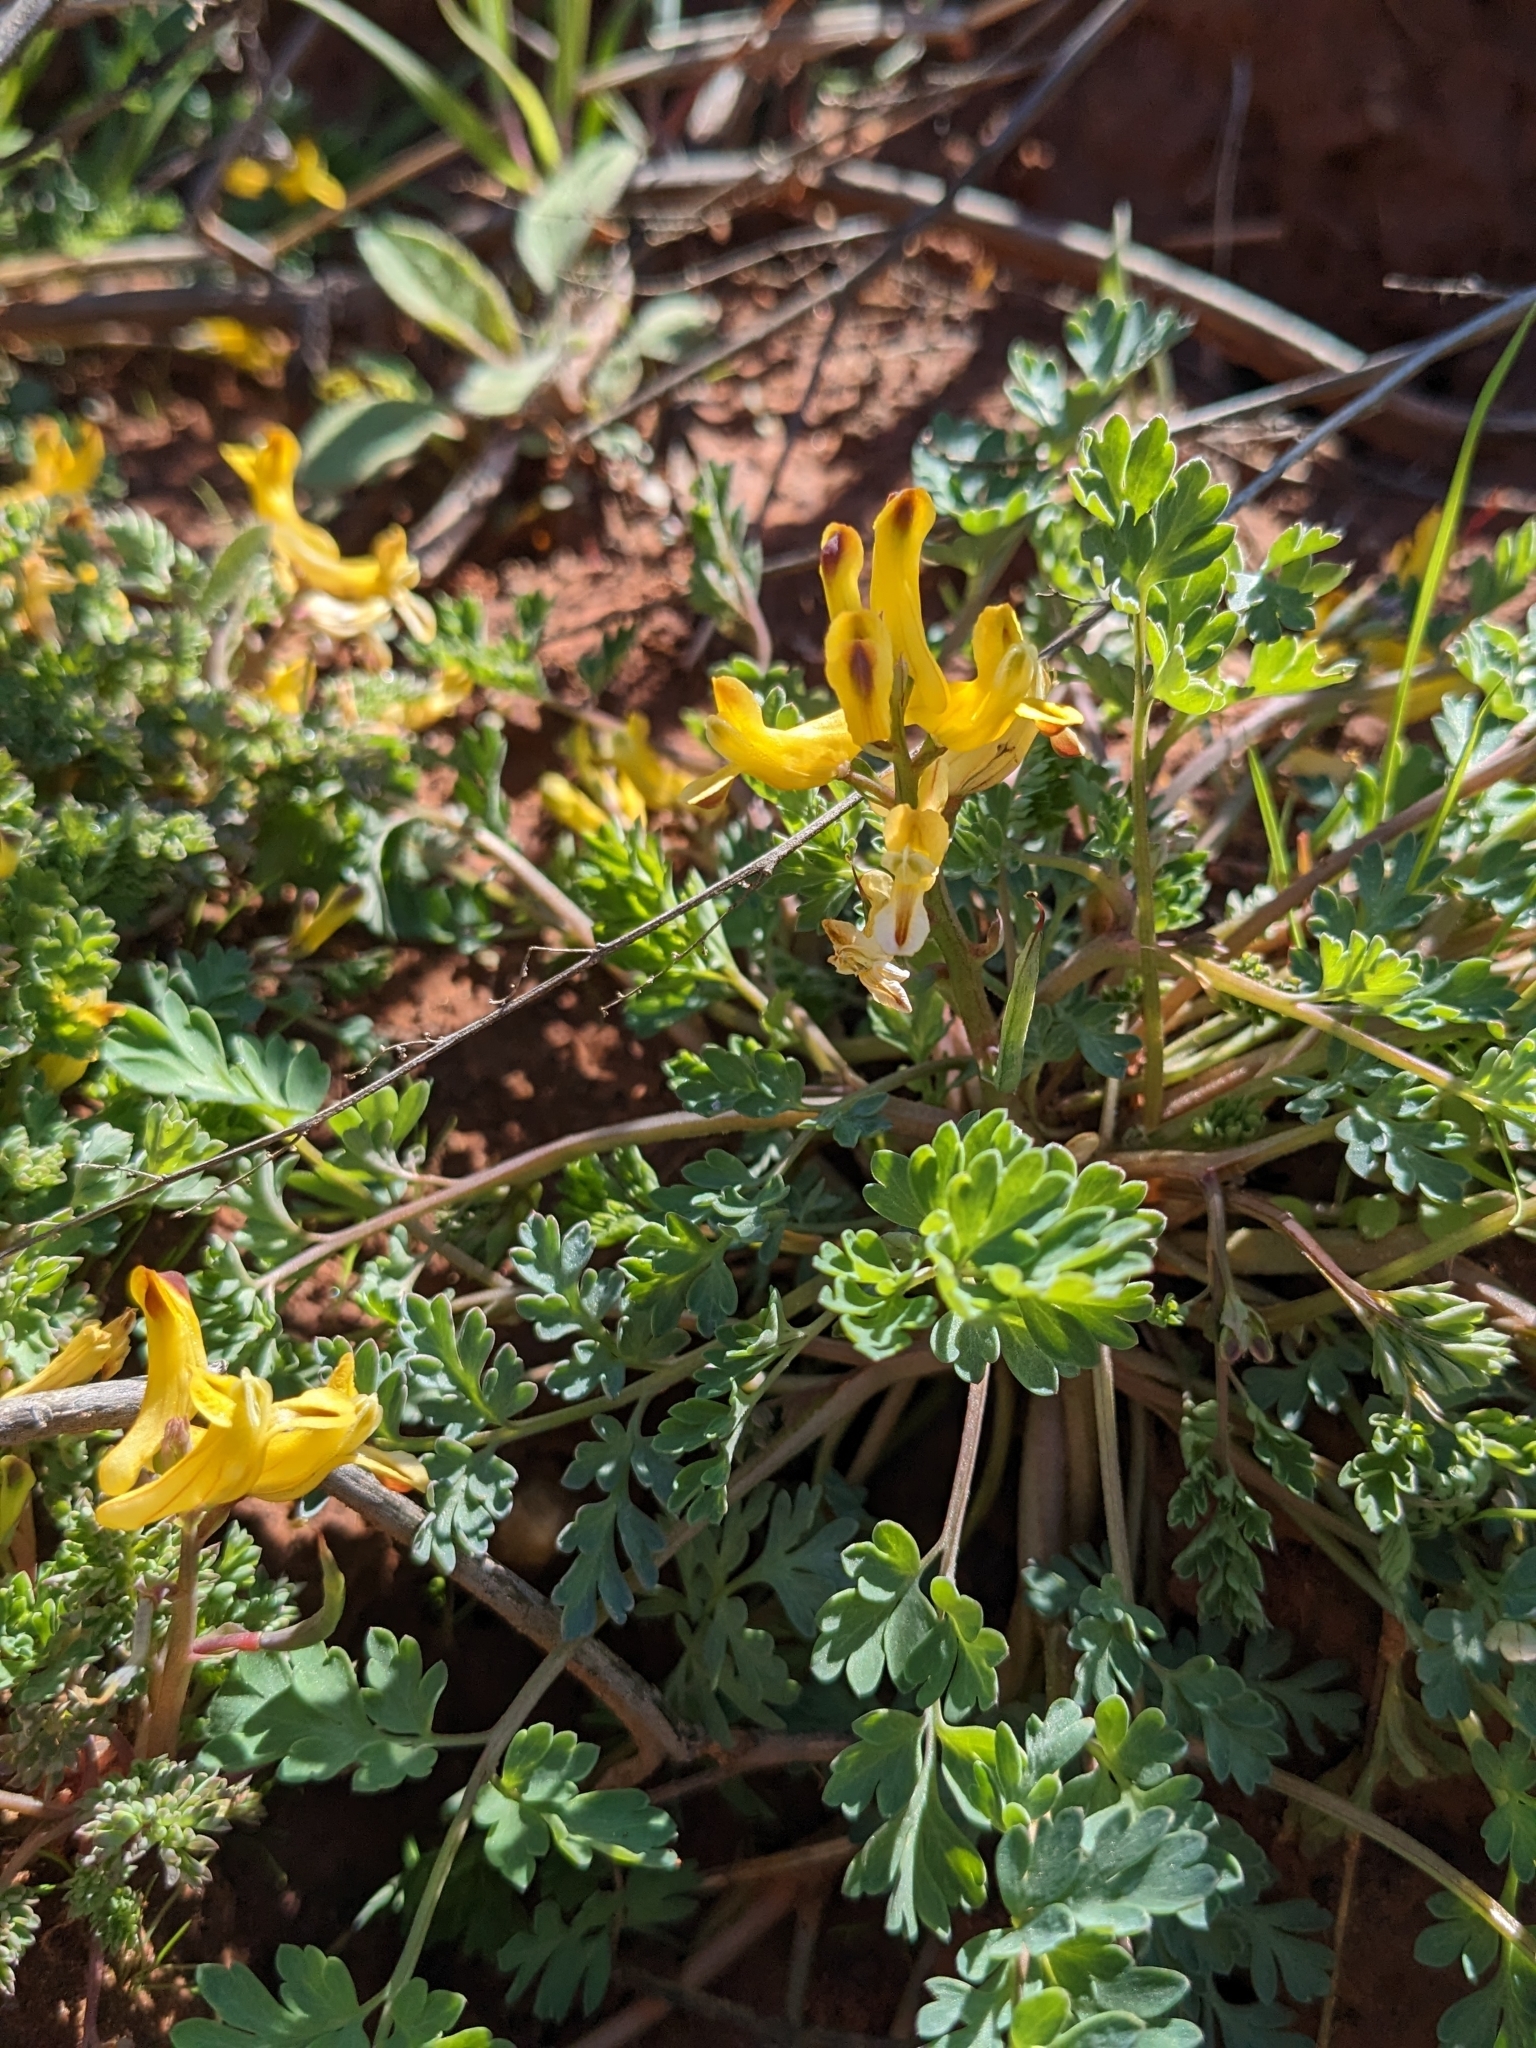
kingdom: Plantae
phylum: Tracheophyta
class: Magnoliopsida
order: Ranunculales
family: Papaveraceae
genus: Corydalis
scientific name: Corydalis aurea
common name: Golden corydalis
